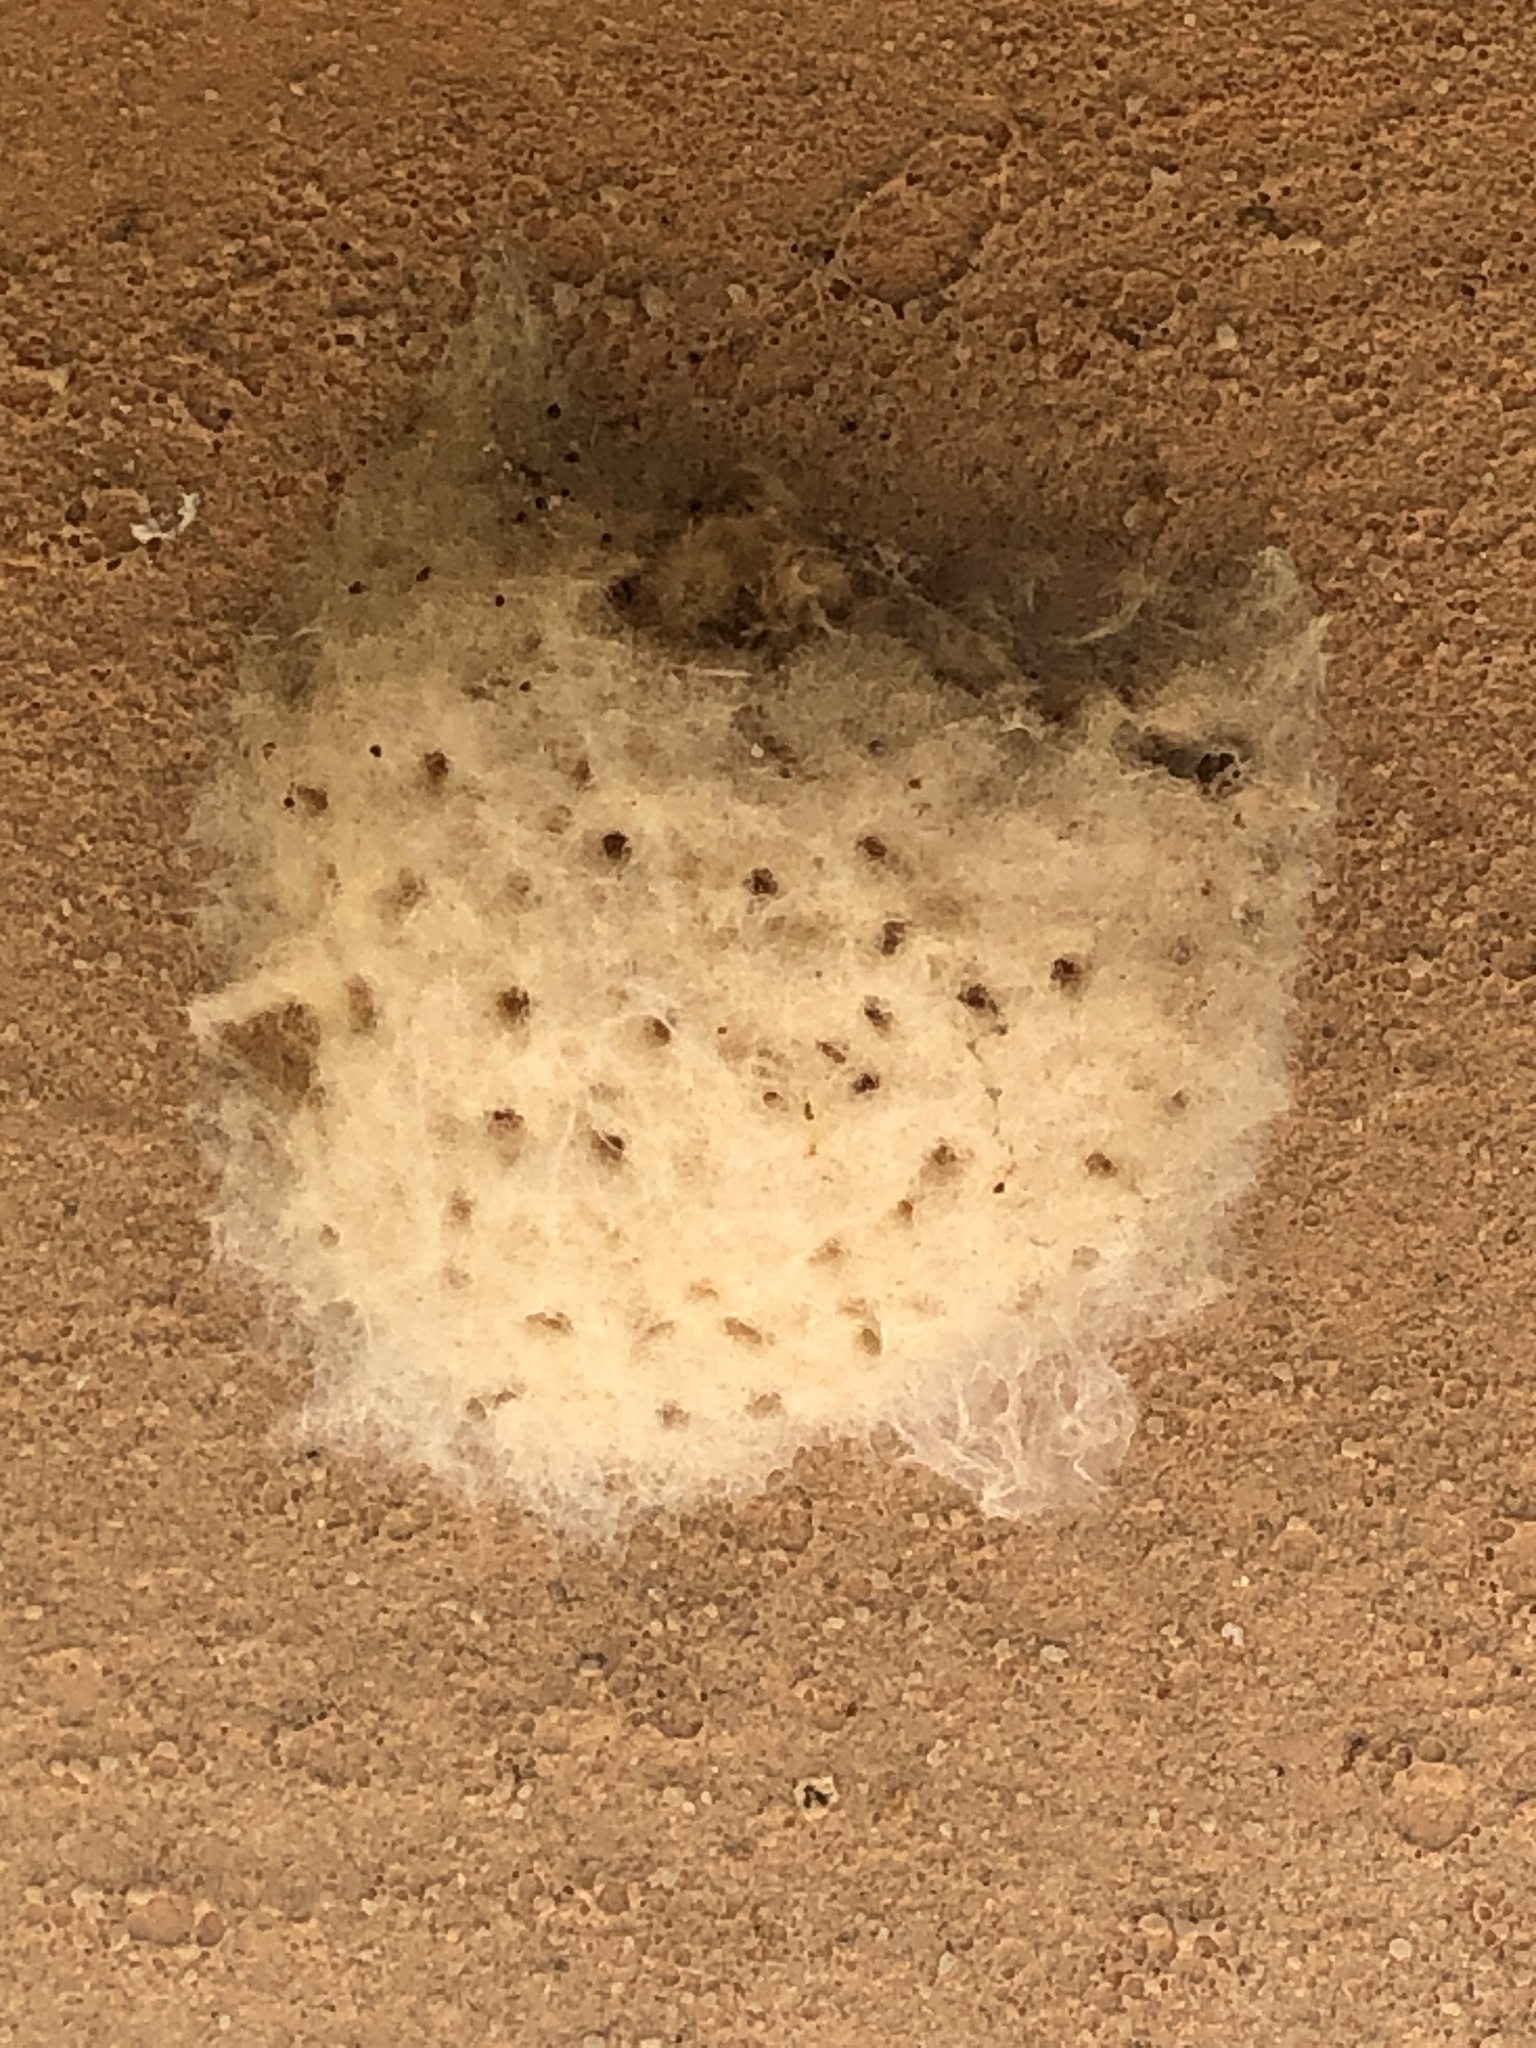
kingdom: Animalia
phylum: Arthropoda
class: Insecta
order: Lepidoptera
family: Erebidae
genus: Lymantria
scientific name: Lymantria dispar
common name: Gypsy moth
